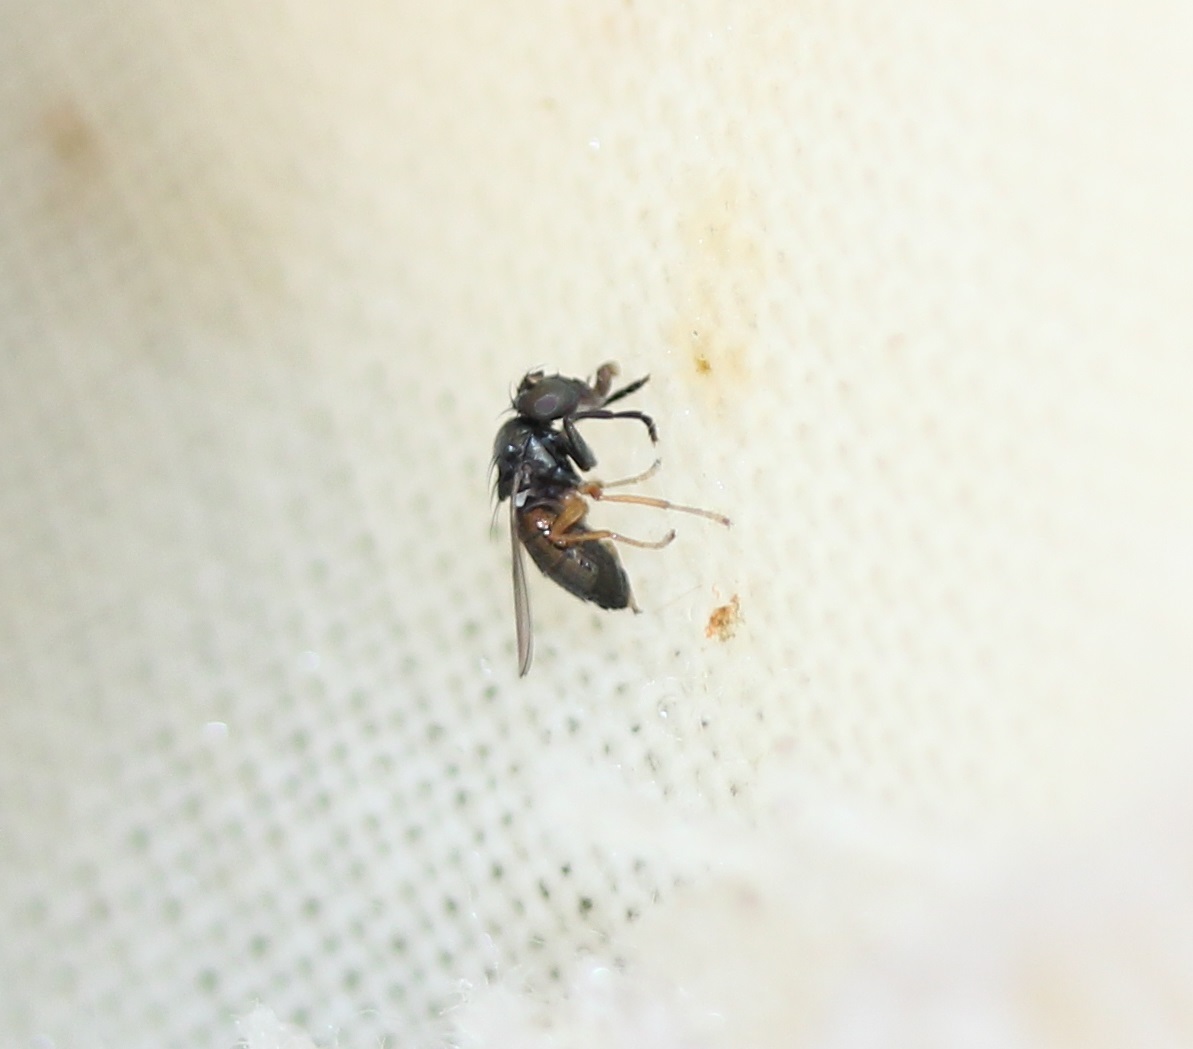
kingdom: Animalia
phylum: Arthropoda
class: Insecta
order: Diptera
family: Ephydridae
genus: Leptopsilopa
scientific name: Leptopsilopa atrimanus
